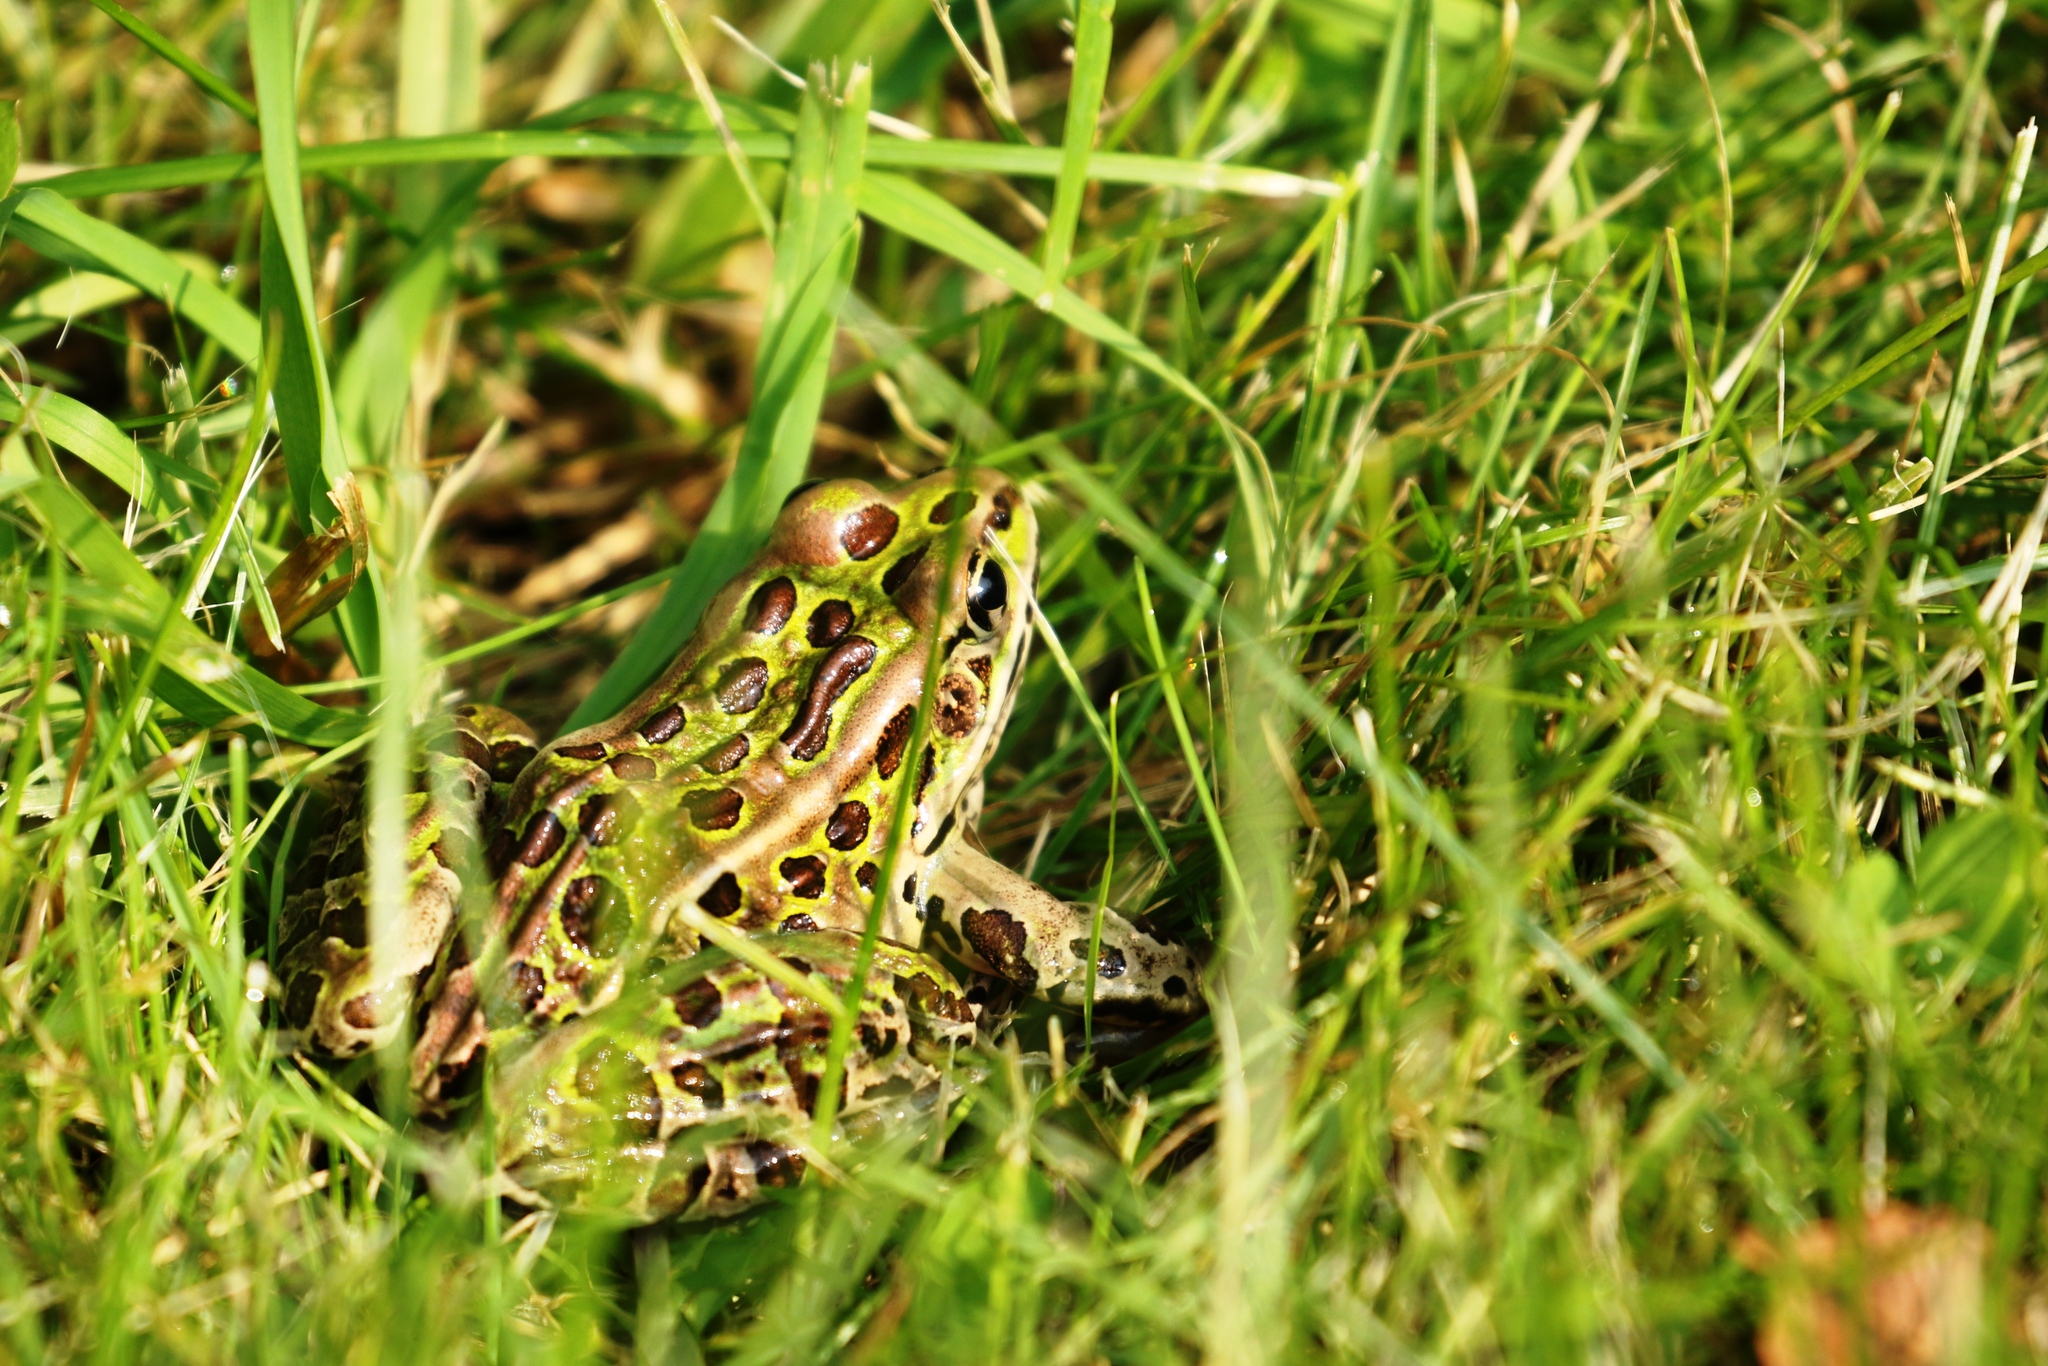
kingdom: Animalia
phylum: Chordata
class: Amphibia
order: Anura
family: Ranidae
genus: Lithobates
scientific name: Lithobates pipiens
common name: Northern leopard frog
